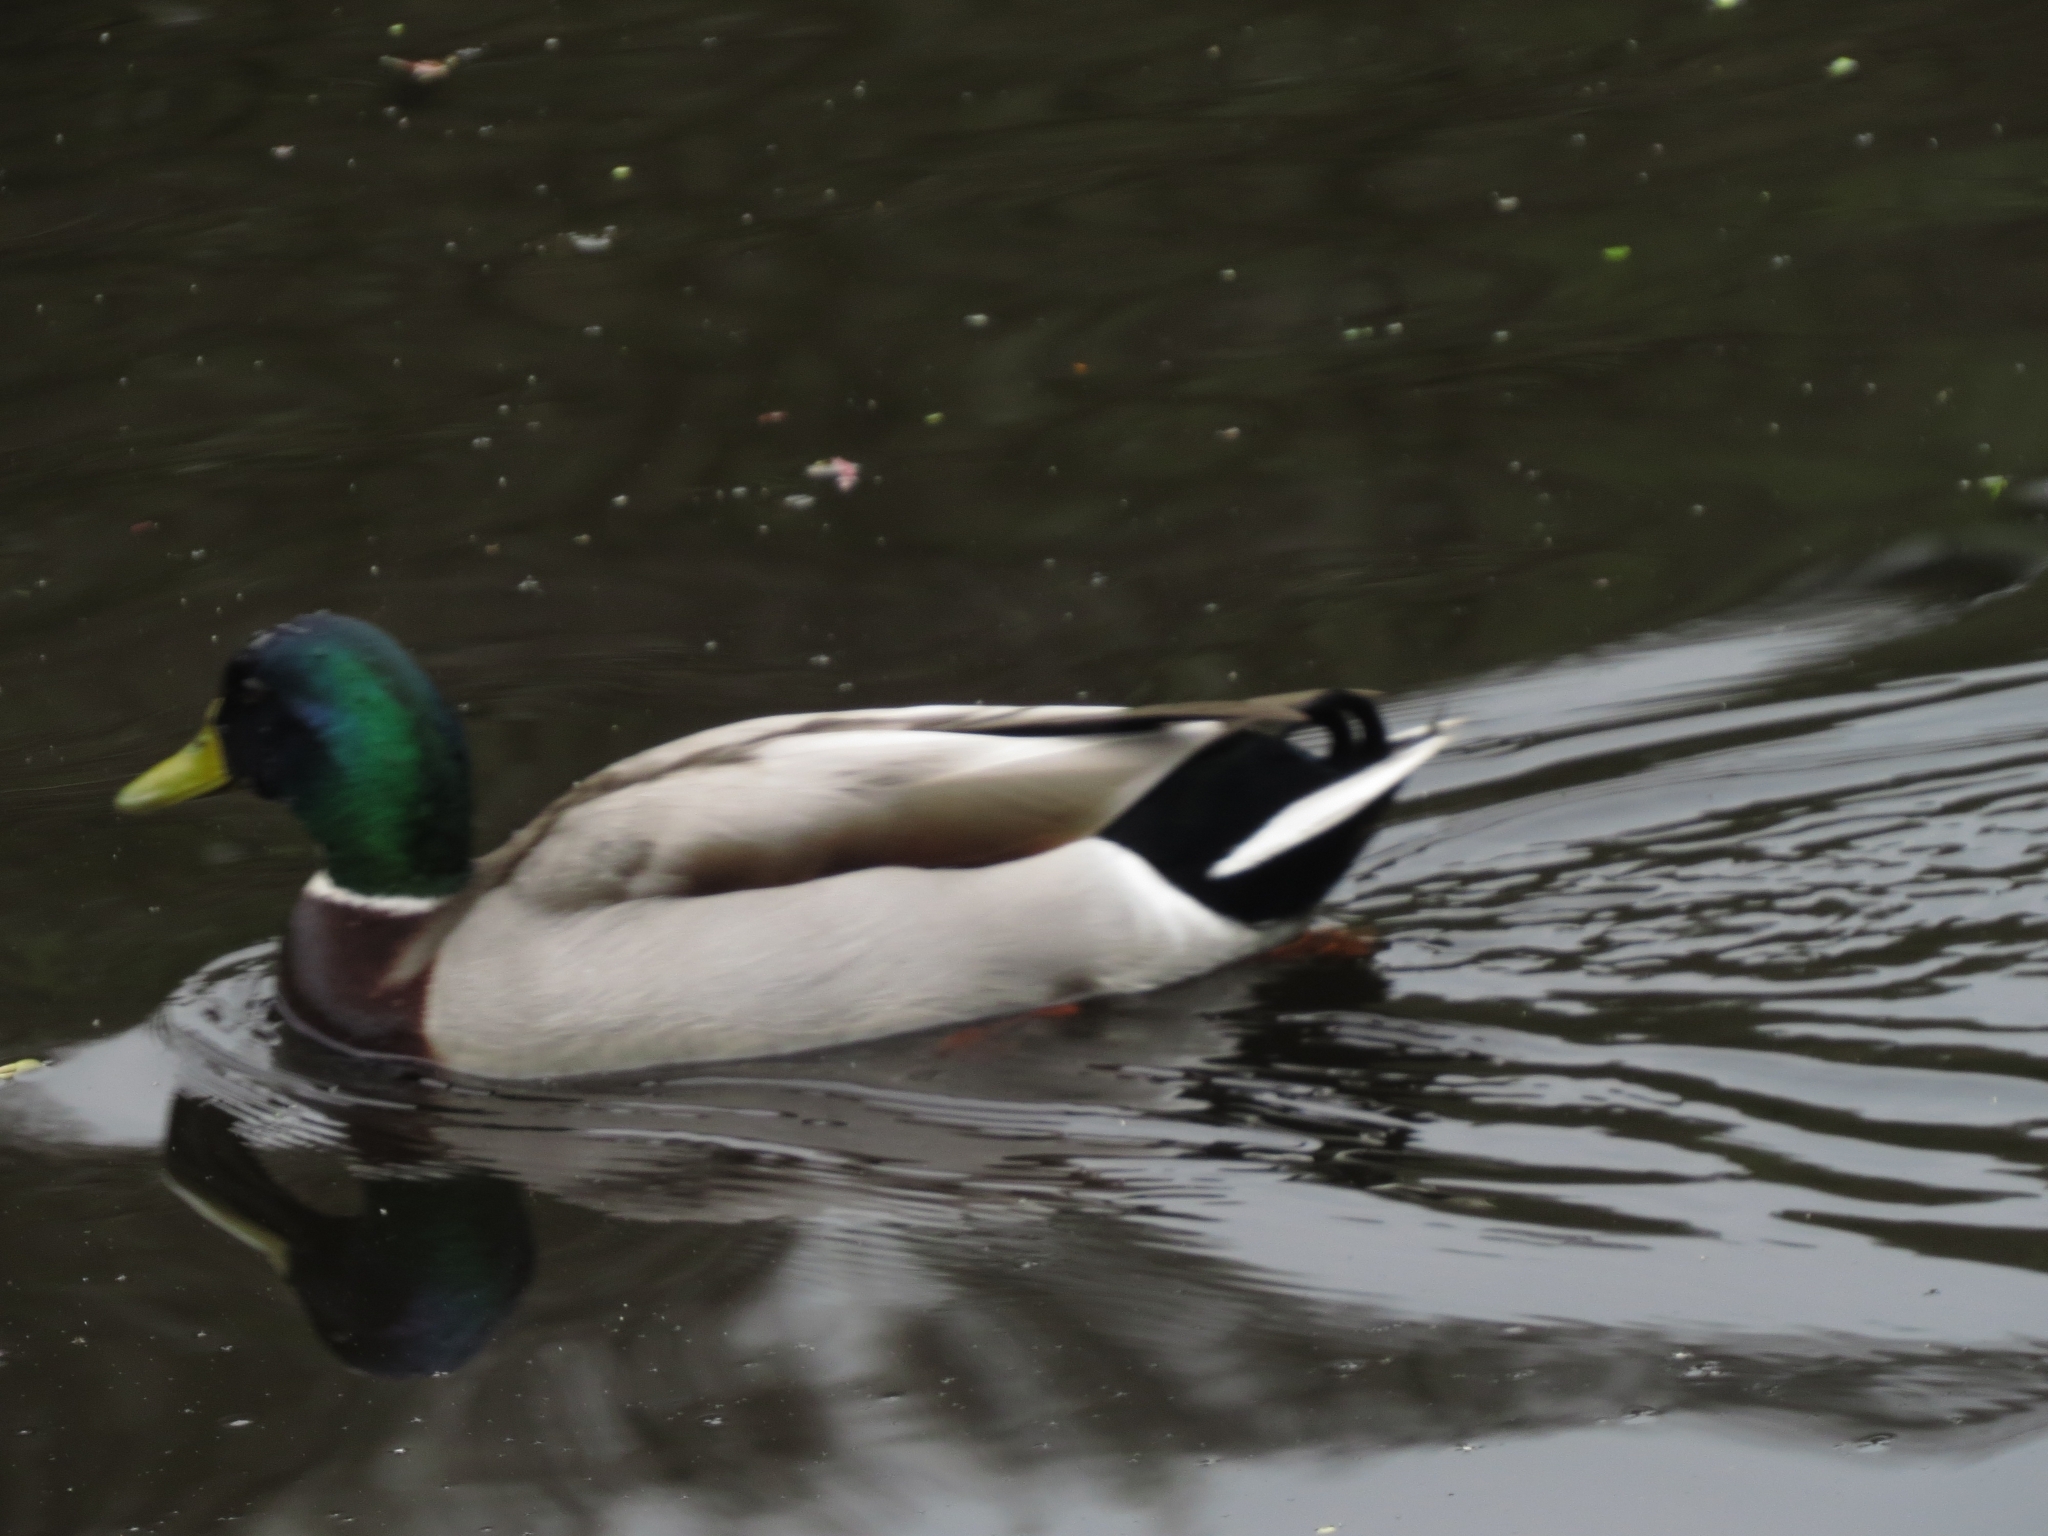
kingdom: Animalia
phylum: Chordata
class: Aves
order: Anseriformes
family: Anatidae
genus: Anas
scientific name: Anas platyrhynchos
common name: Mallard
